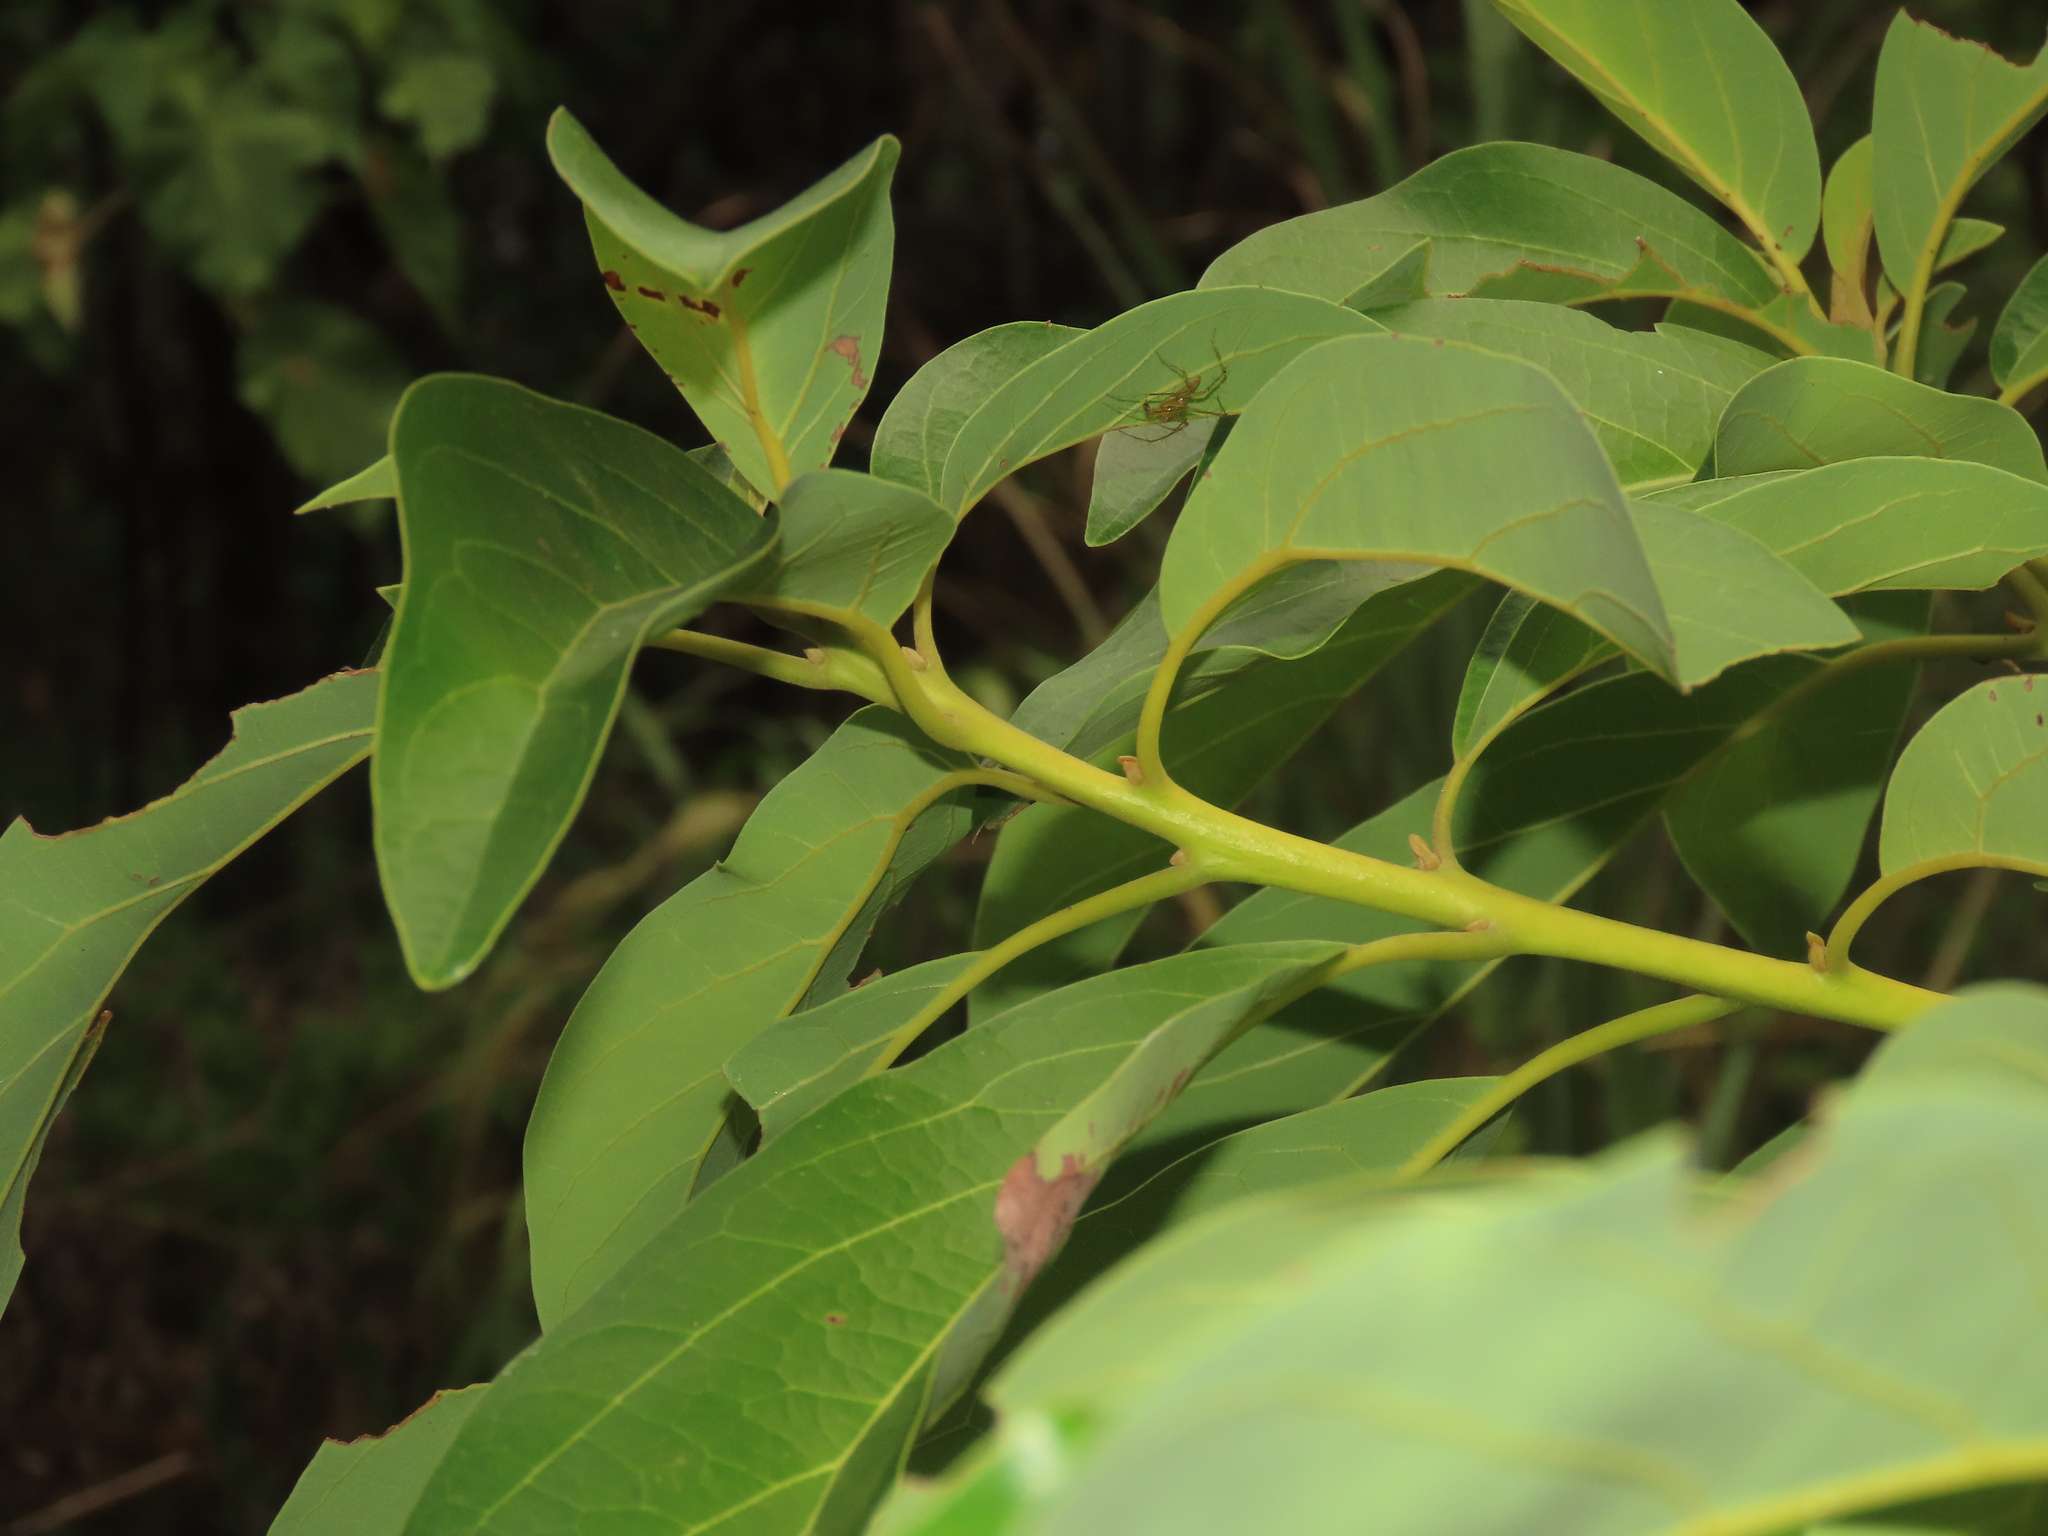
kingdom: Plantae
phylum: Tracheophyta
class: Magnoliopsida
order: Laurales
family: Lauraceae
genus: Persea
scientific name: Persea americana
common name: Avocado
